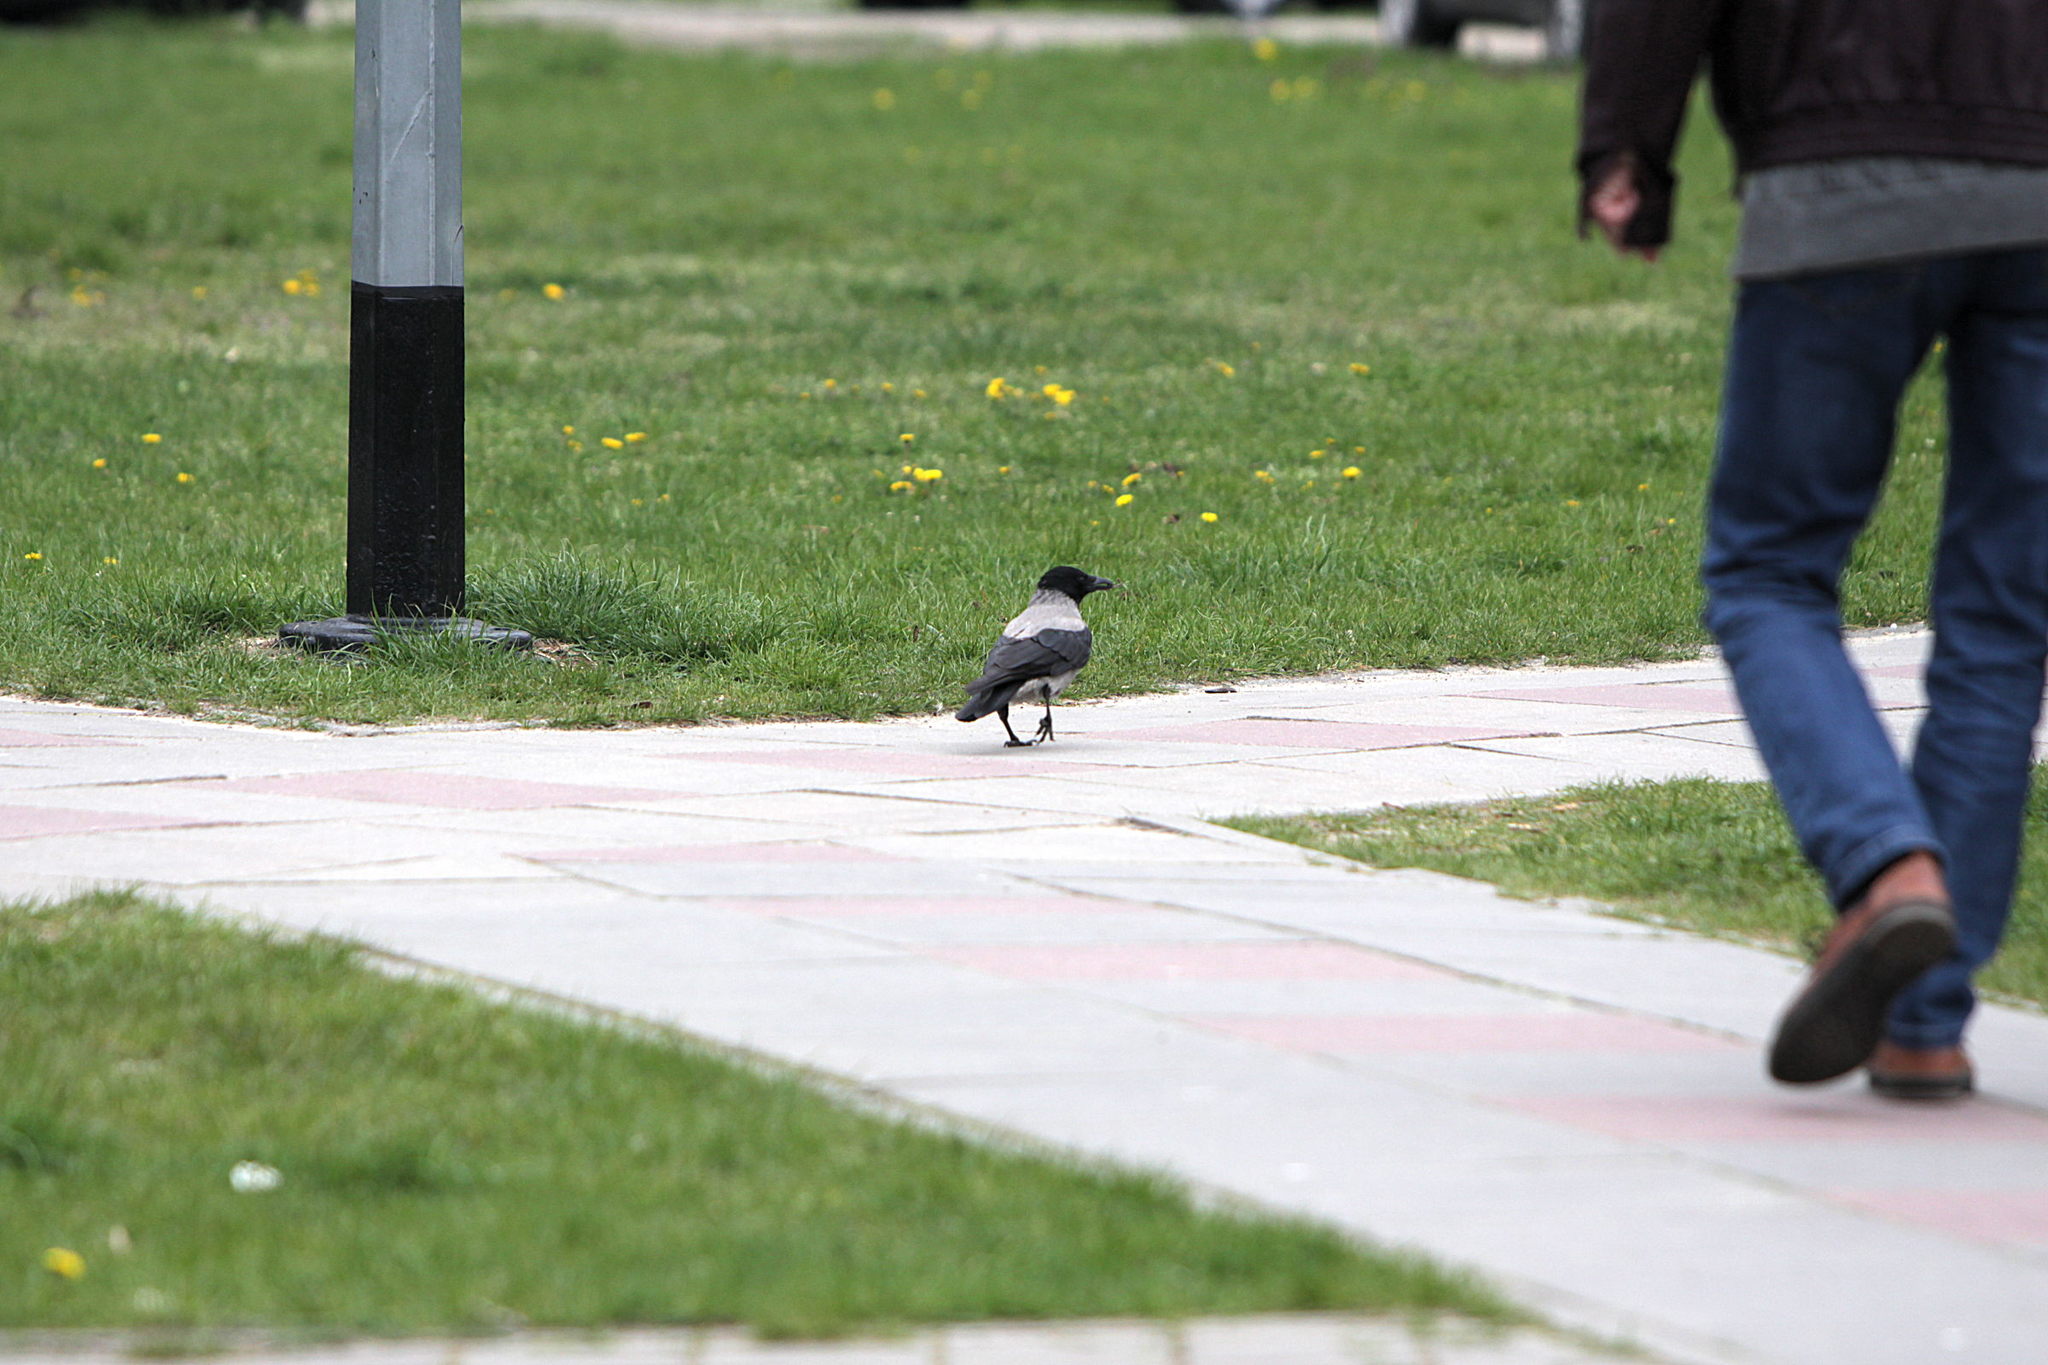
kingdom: Animalia
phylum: Chordata
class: Aves
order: Passeriformes
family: Corvidae
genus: Corvus
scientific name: Corvus cornix
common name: Hooded crow
